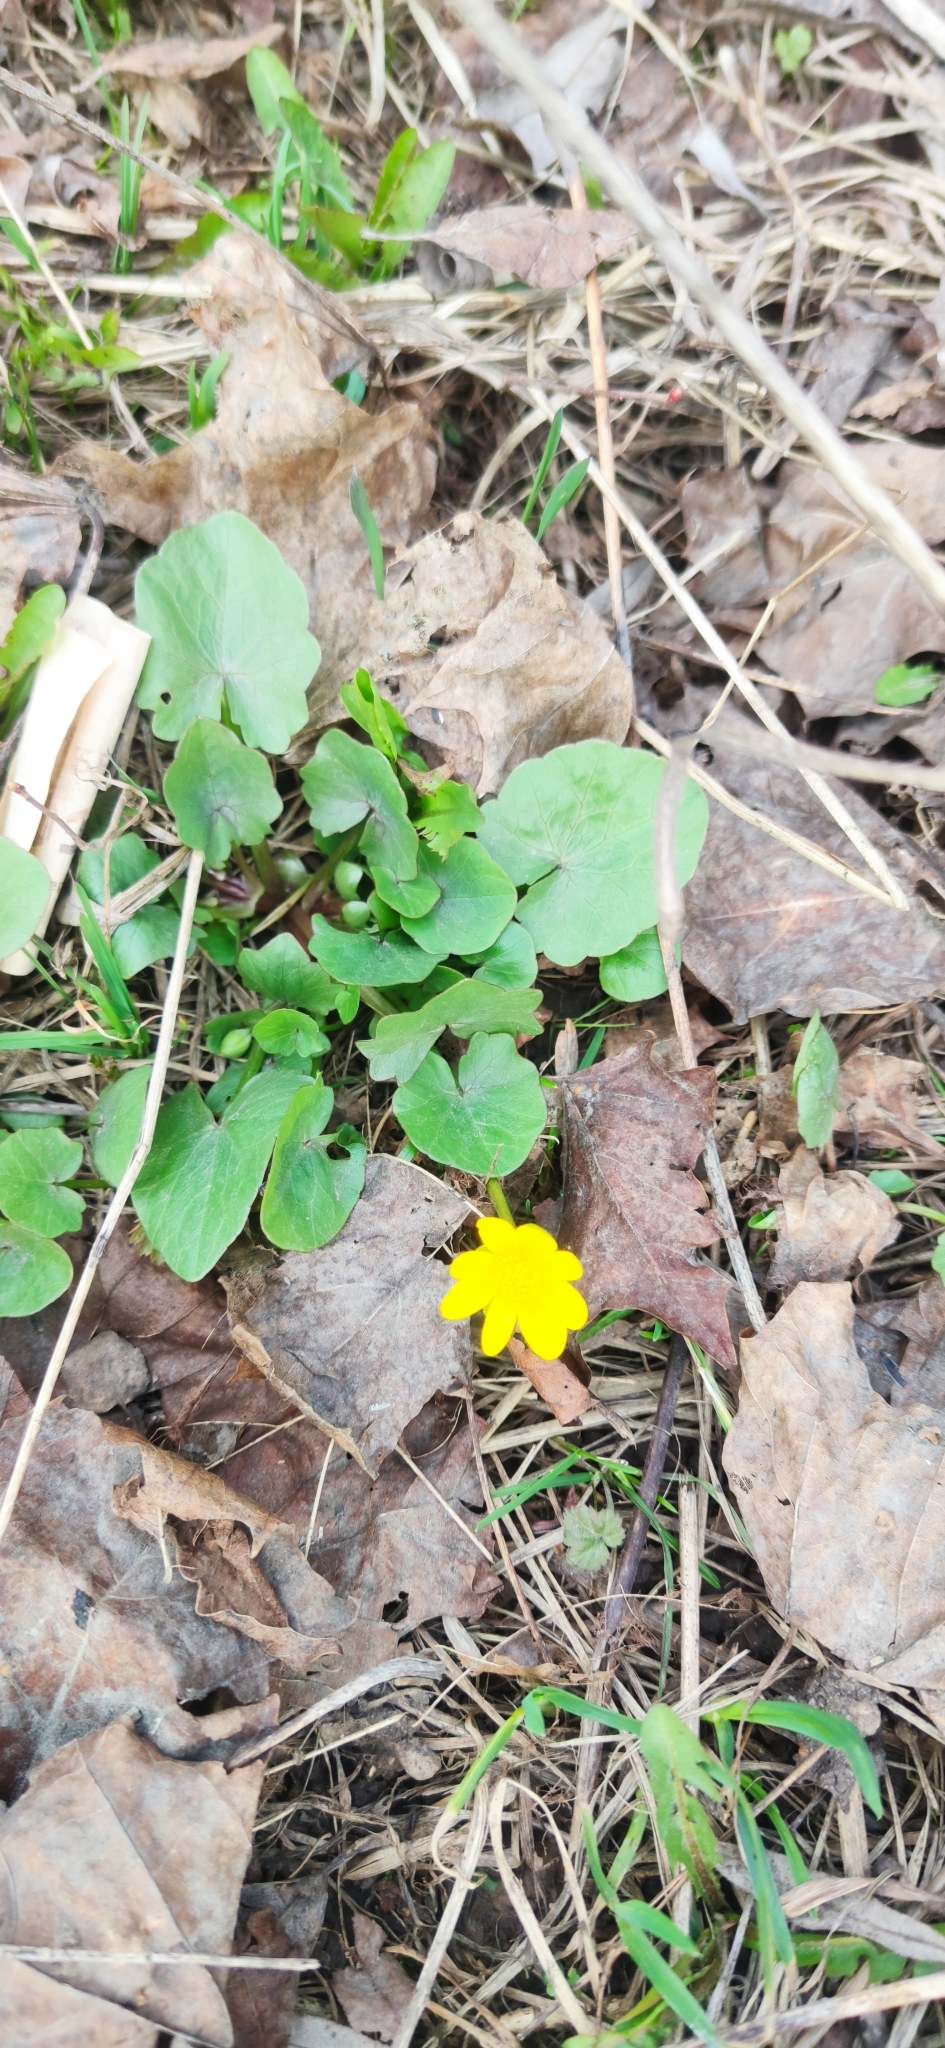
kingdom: Plantae
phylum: Tracheophyta
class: Magnoliopsida
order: Ranunculales
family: Ranunculaceae
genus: Ficaria
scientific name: Ficaria verna
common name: Lesser celandine
